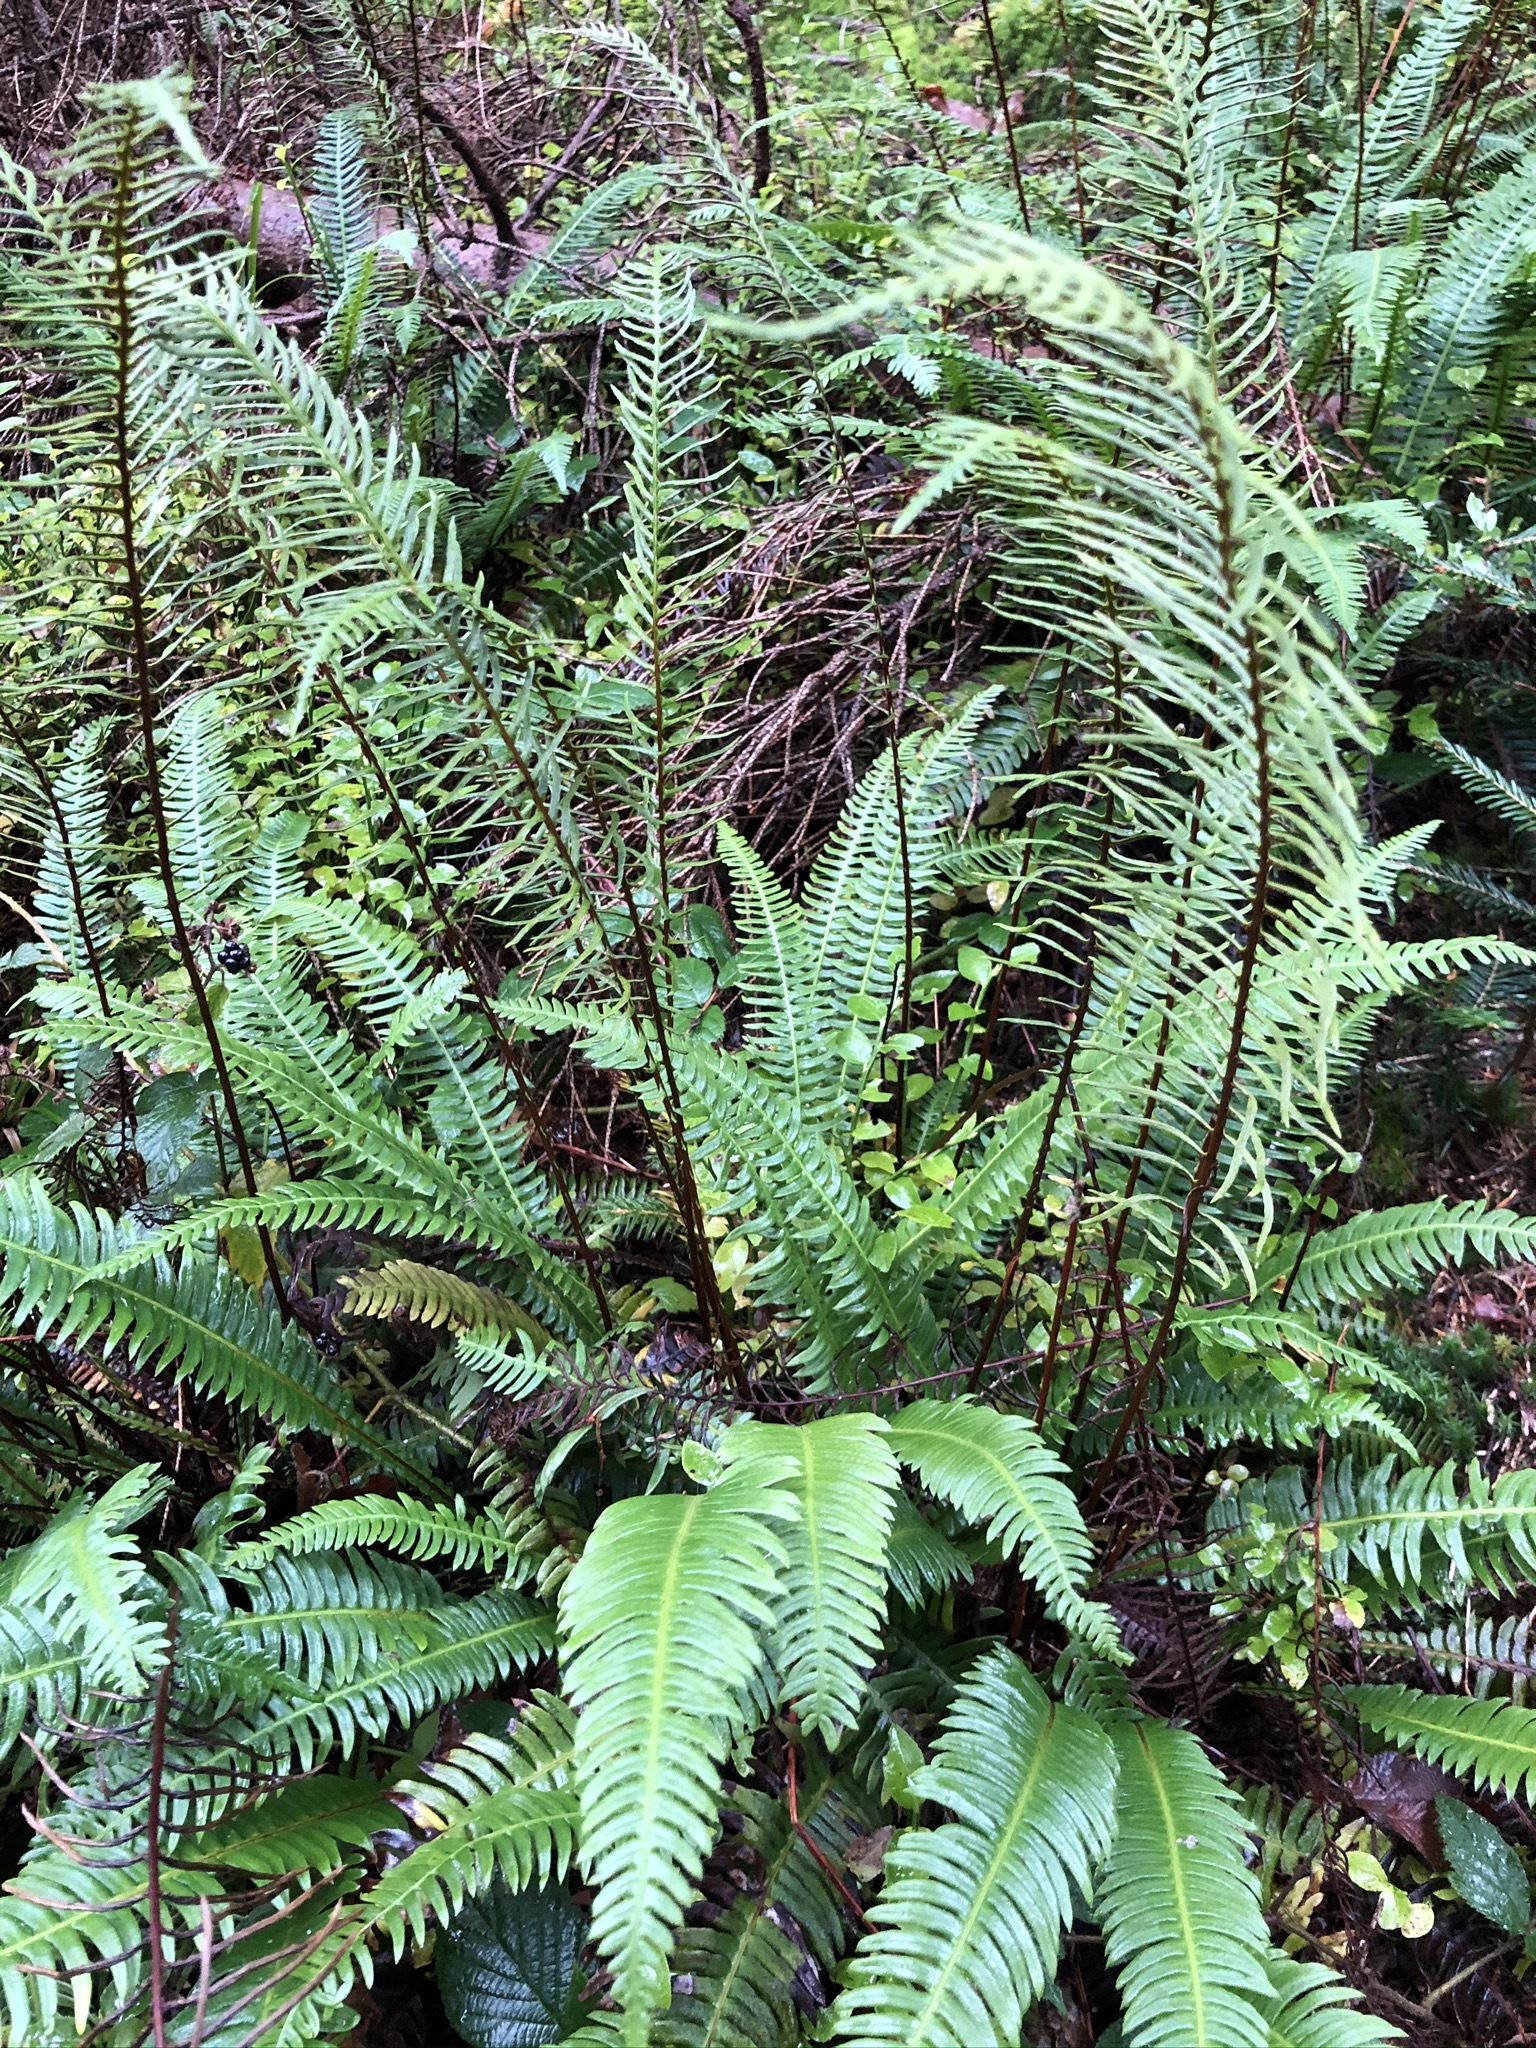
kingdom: Plantae
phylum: Tracheophyta
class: Polypodiopsida
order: Polypodiales
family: Blechnaceae
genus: Struthiopteris
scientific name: Struthiopteris spicant
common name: Deer fern
